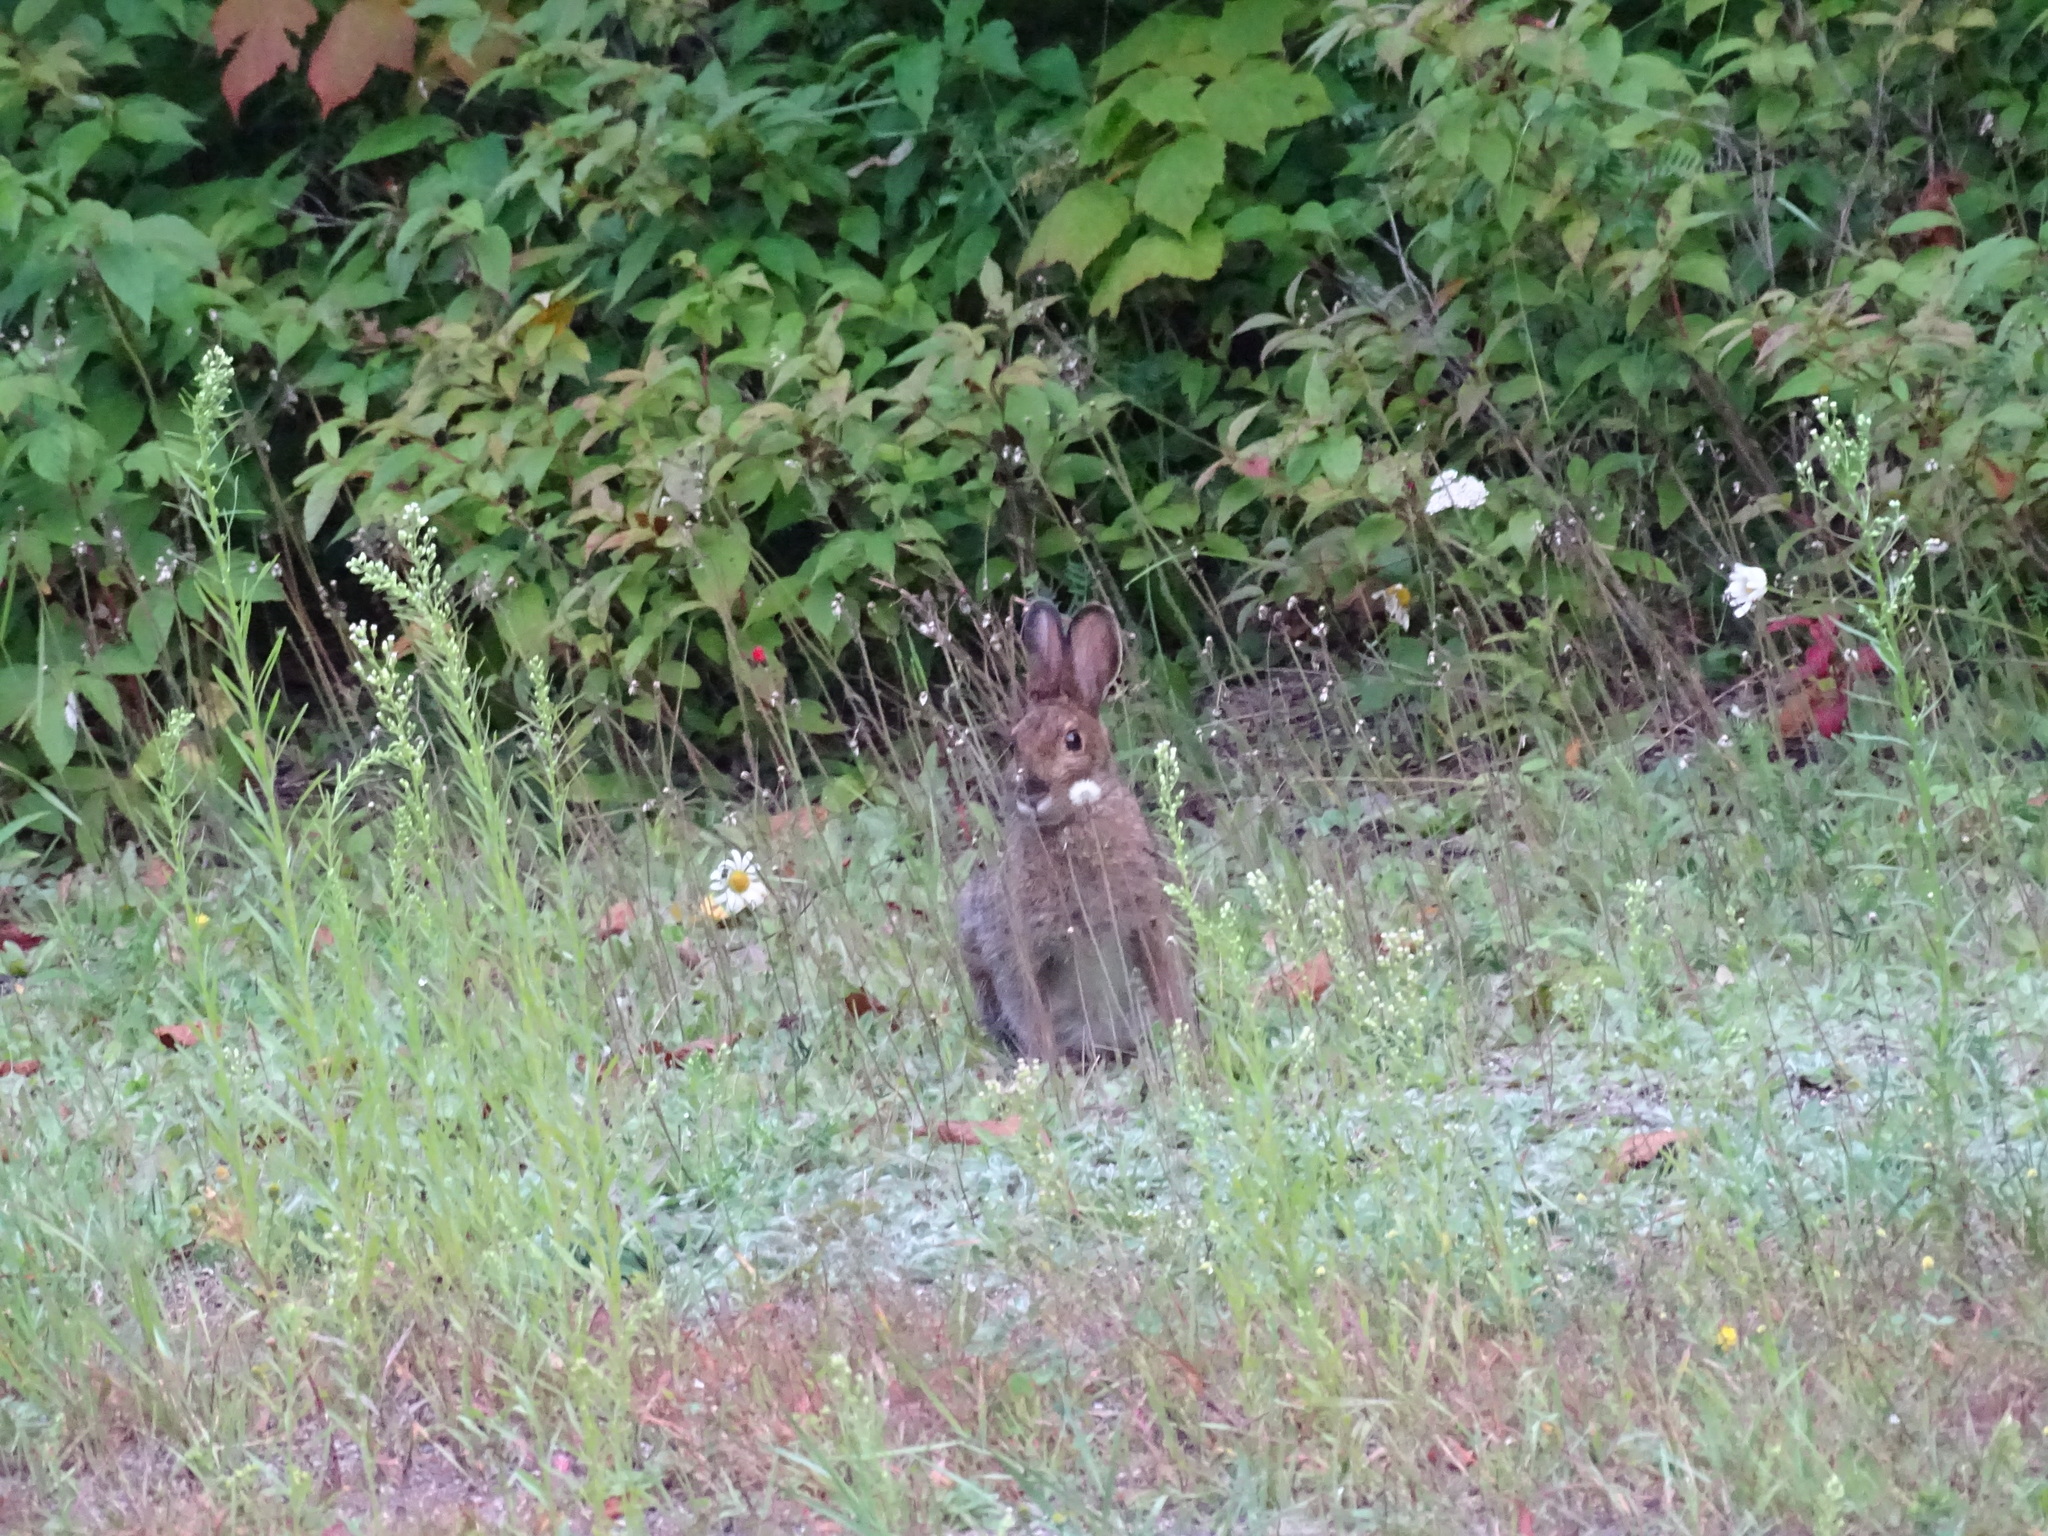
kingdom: Animalia
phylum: Chordata
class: Mammalia
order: Lagomorpha
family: Leporidae
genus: Lepus
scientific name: Lepus americanus
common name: Snowshoe hare
